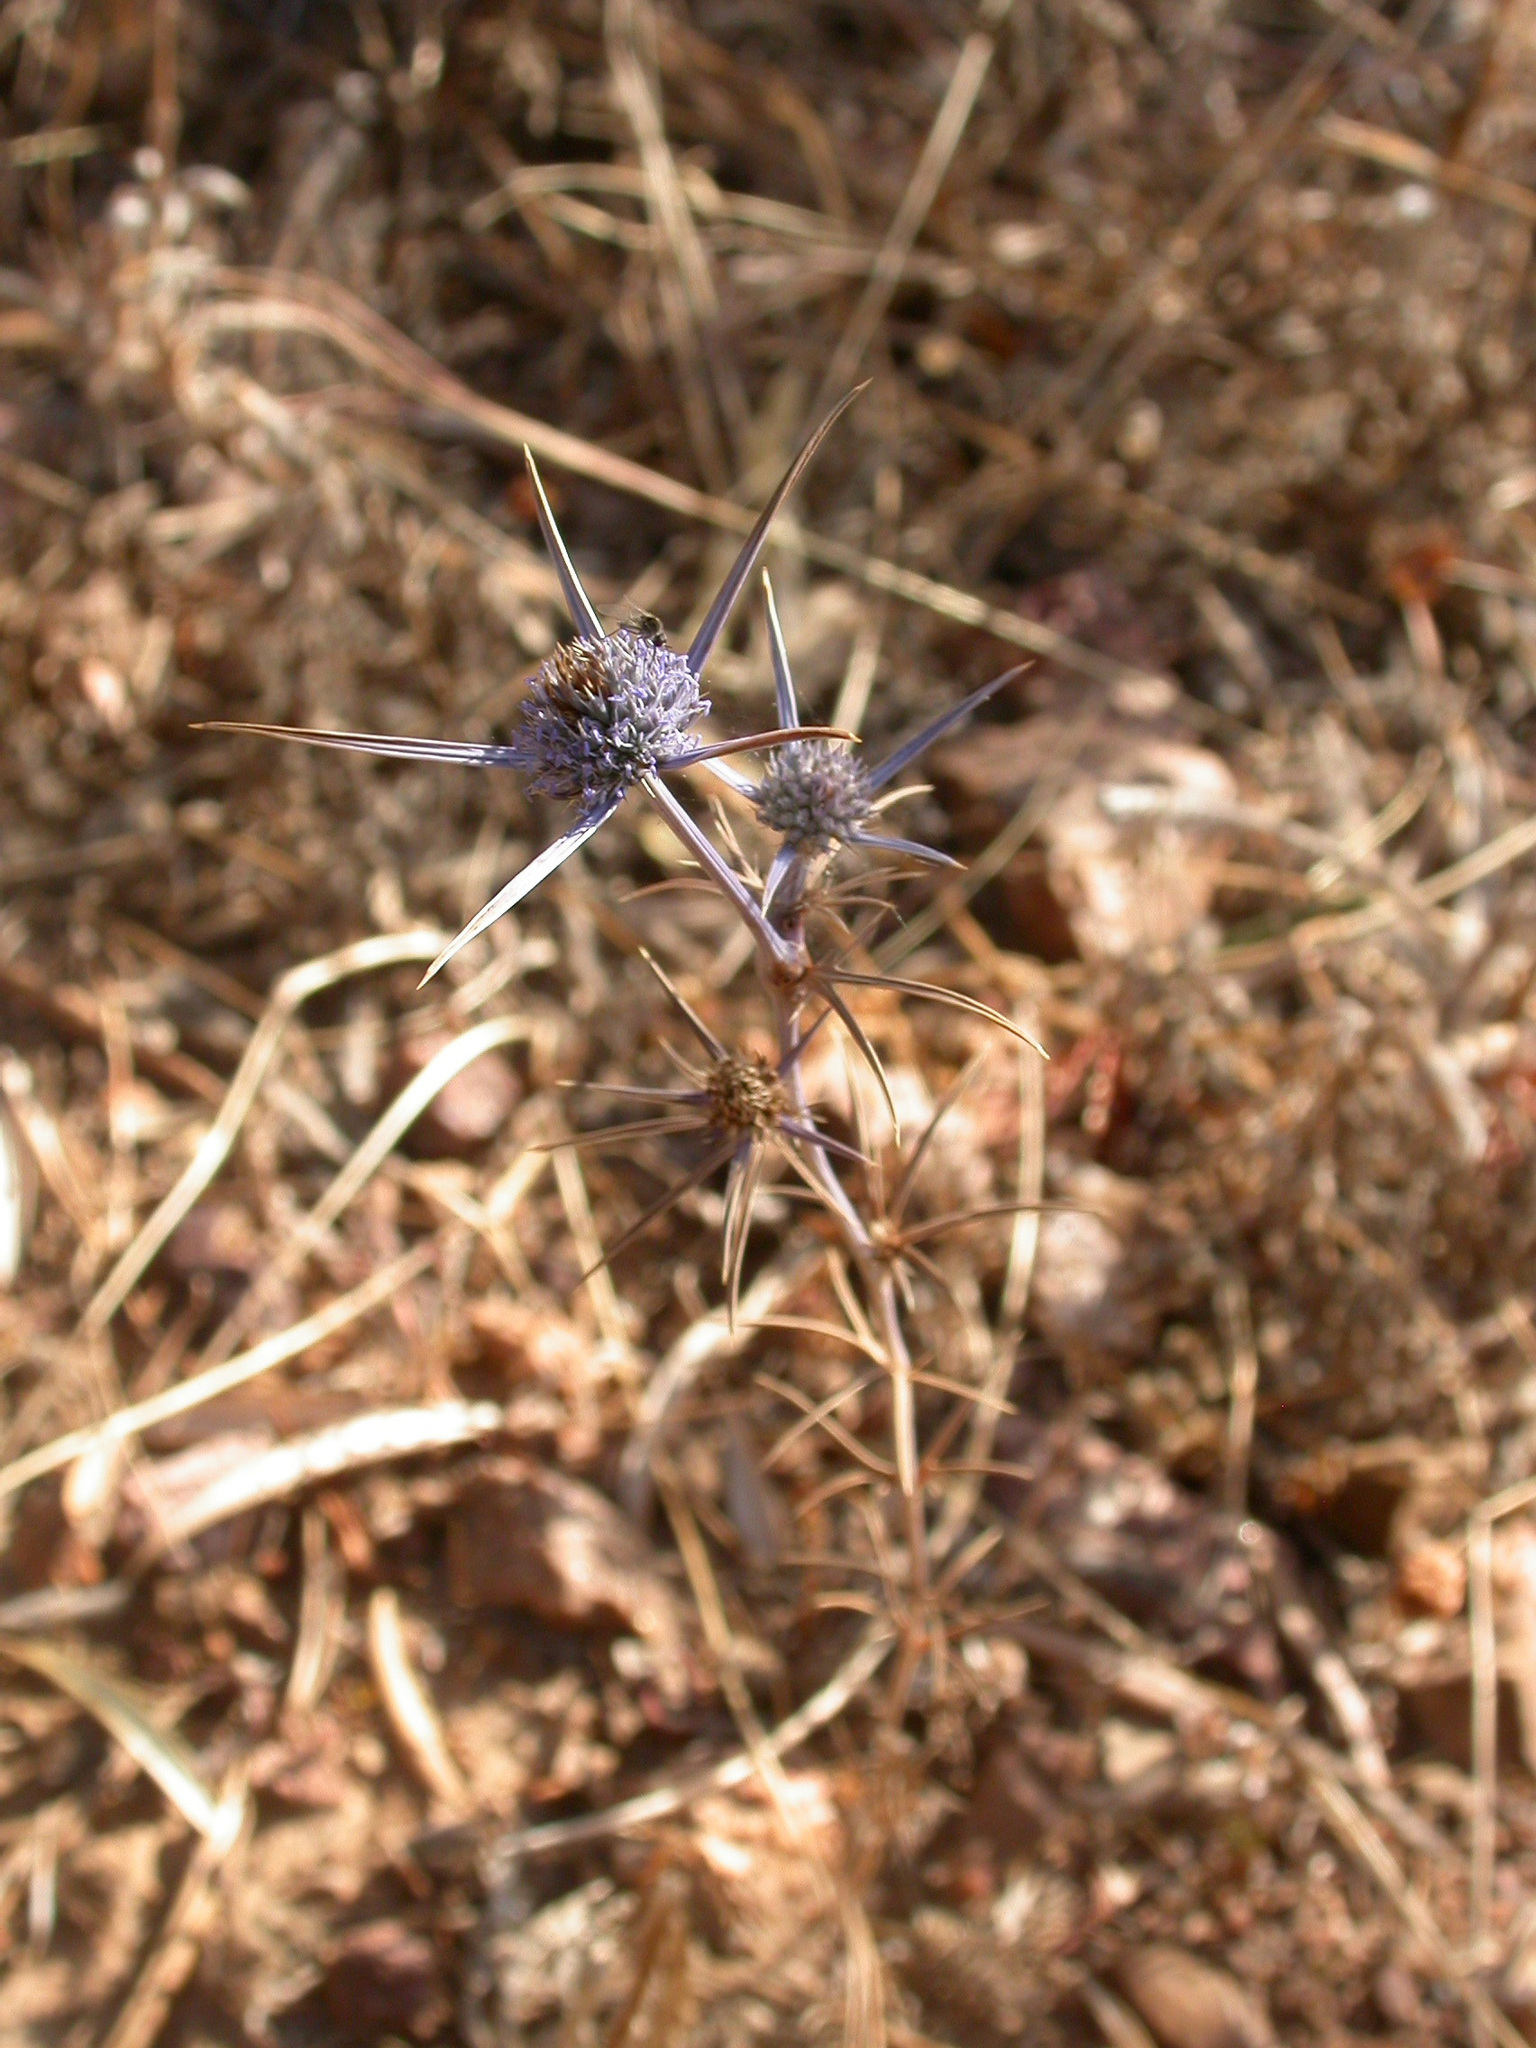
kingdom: Plantae
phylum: Tracheophyta
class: Magnoliopsida
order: Apiales
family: Apiaceae
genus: Eryngium
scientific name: Eryngium tricuspidatum
